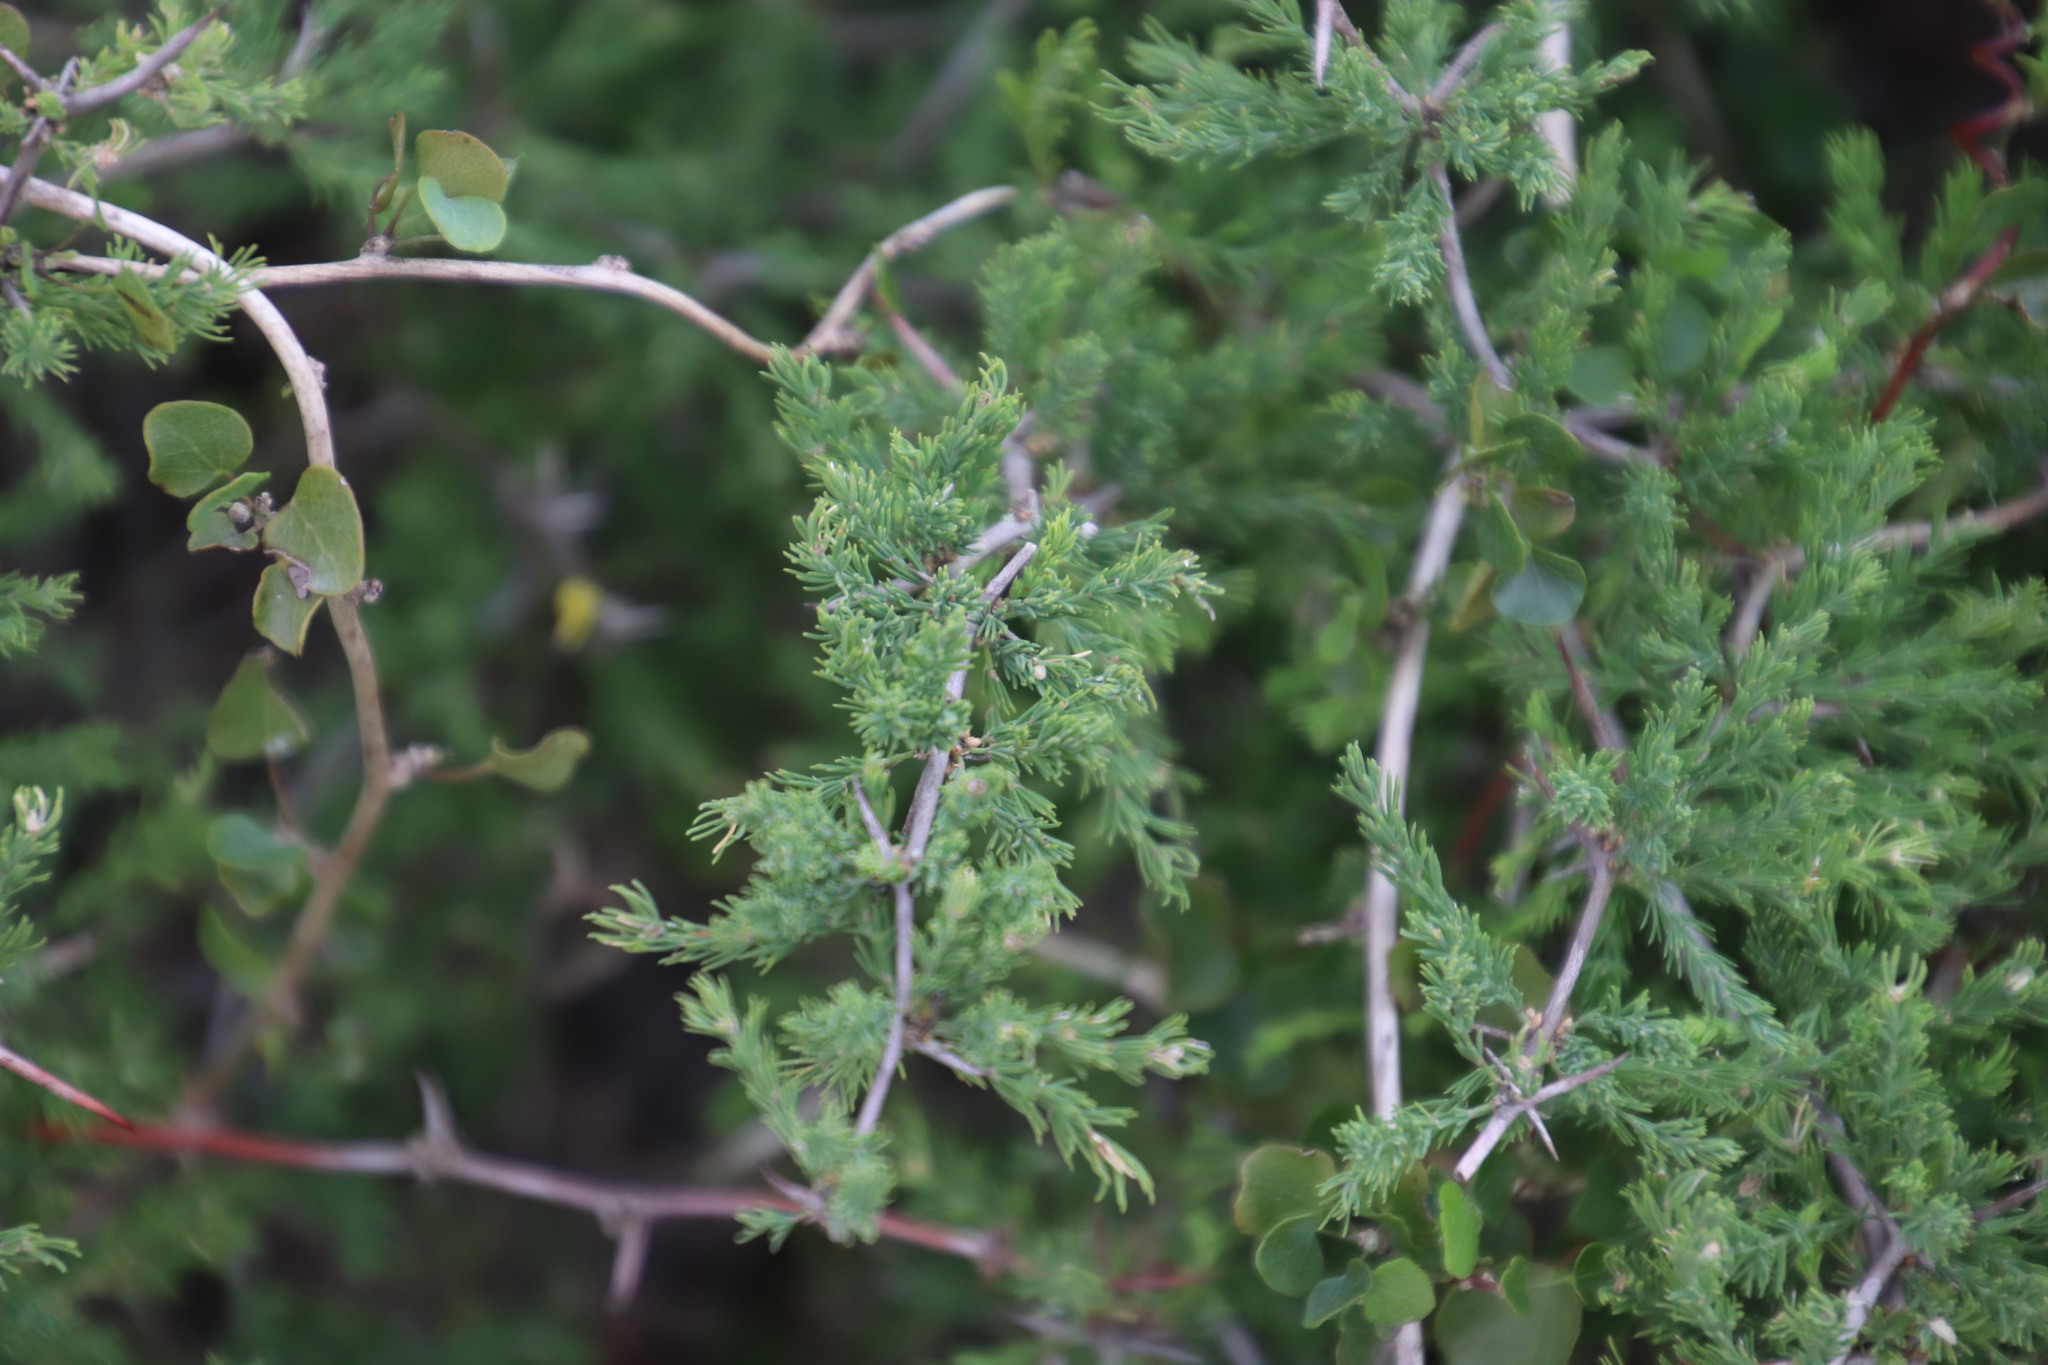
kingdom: Plantae
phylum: Tracheophyta
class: Liliopsida
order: Asparagales
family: Asparagaceae
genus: Asparagus
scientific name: Asparagus rubicundus
